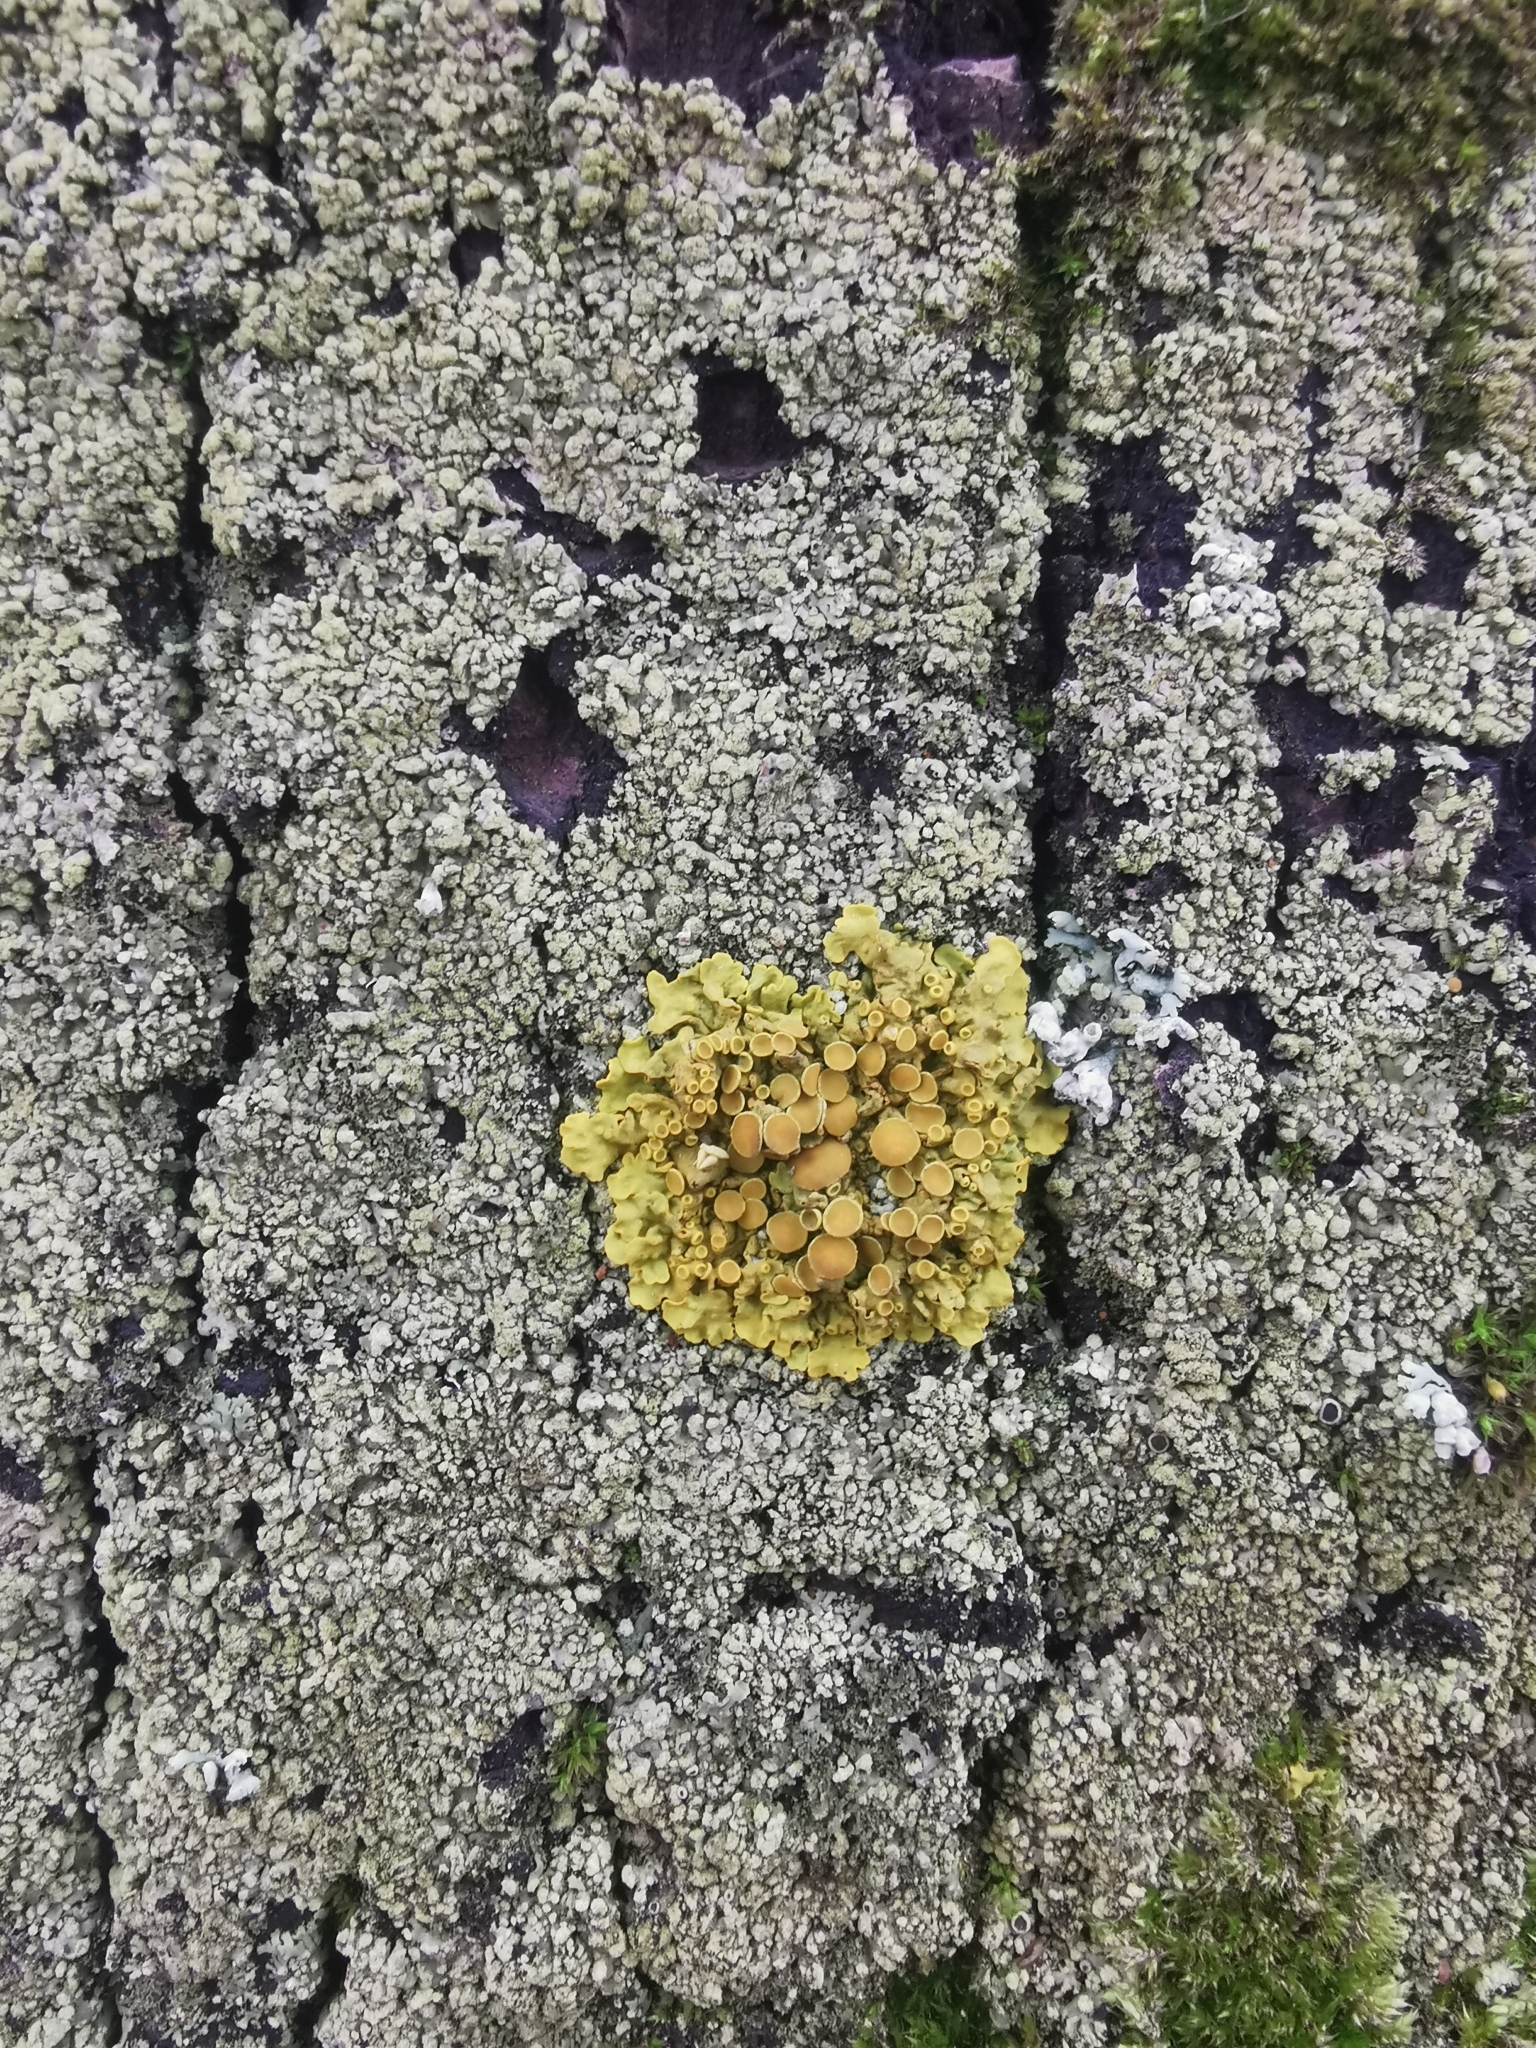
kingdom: Fungi
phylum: Ascomycota
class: Lecanoromycetes
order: Teloschistales
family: Teloschistaceae
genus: Xanthoria
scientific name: Xanthoria parietina
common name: Common orange lichen
